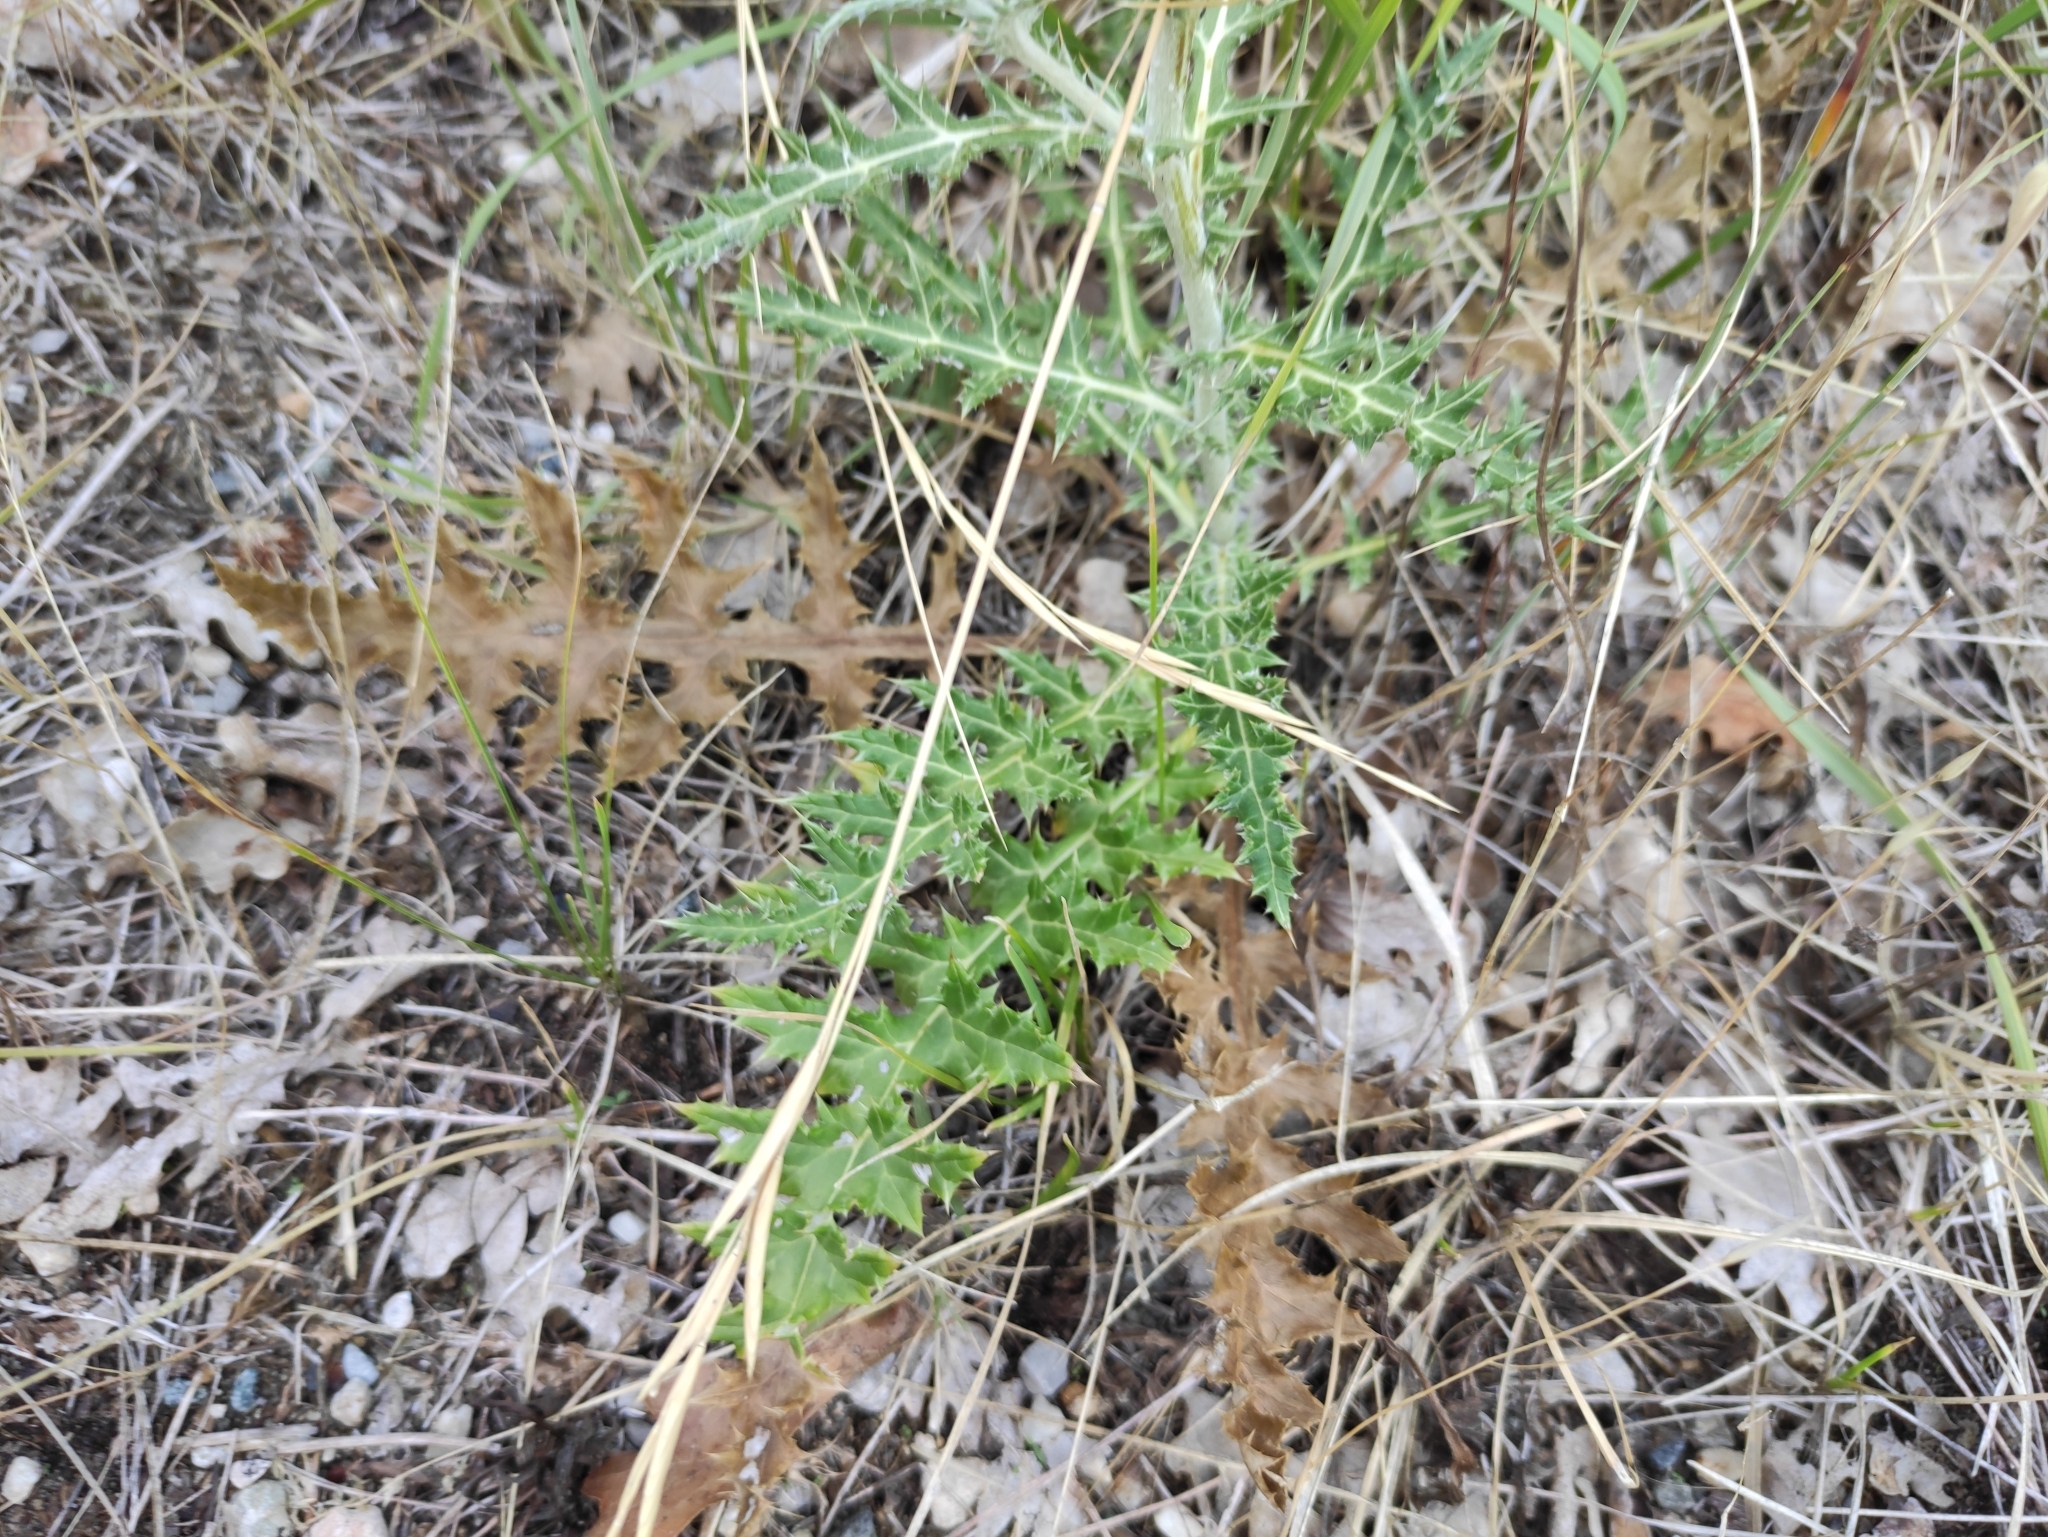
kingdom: Plantae
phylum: Tracheophyta
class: Magnoliopsida
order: Asterales
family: Asteraceae
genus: Echinops
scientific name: Echinops ritro
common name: Globe thistle
